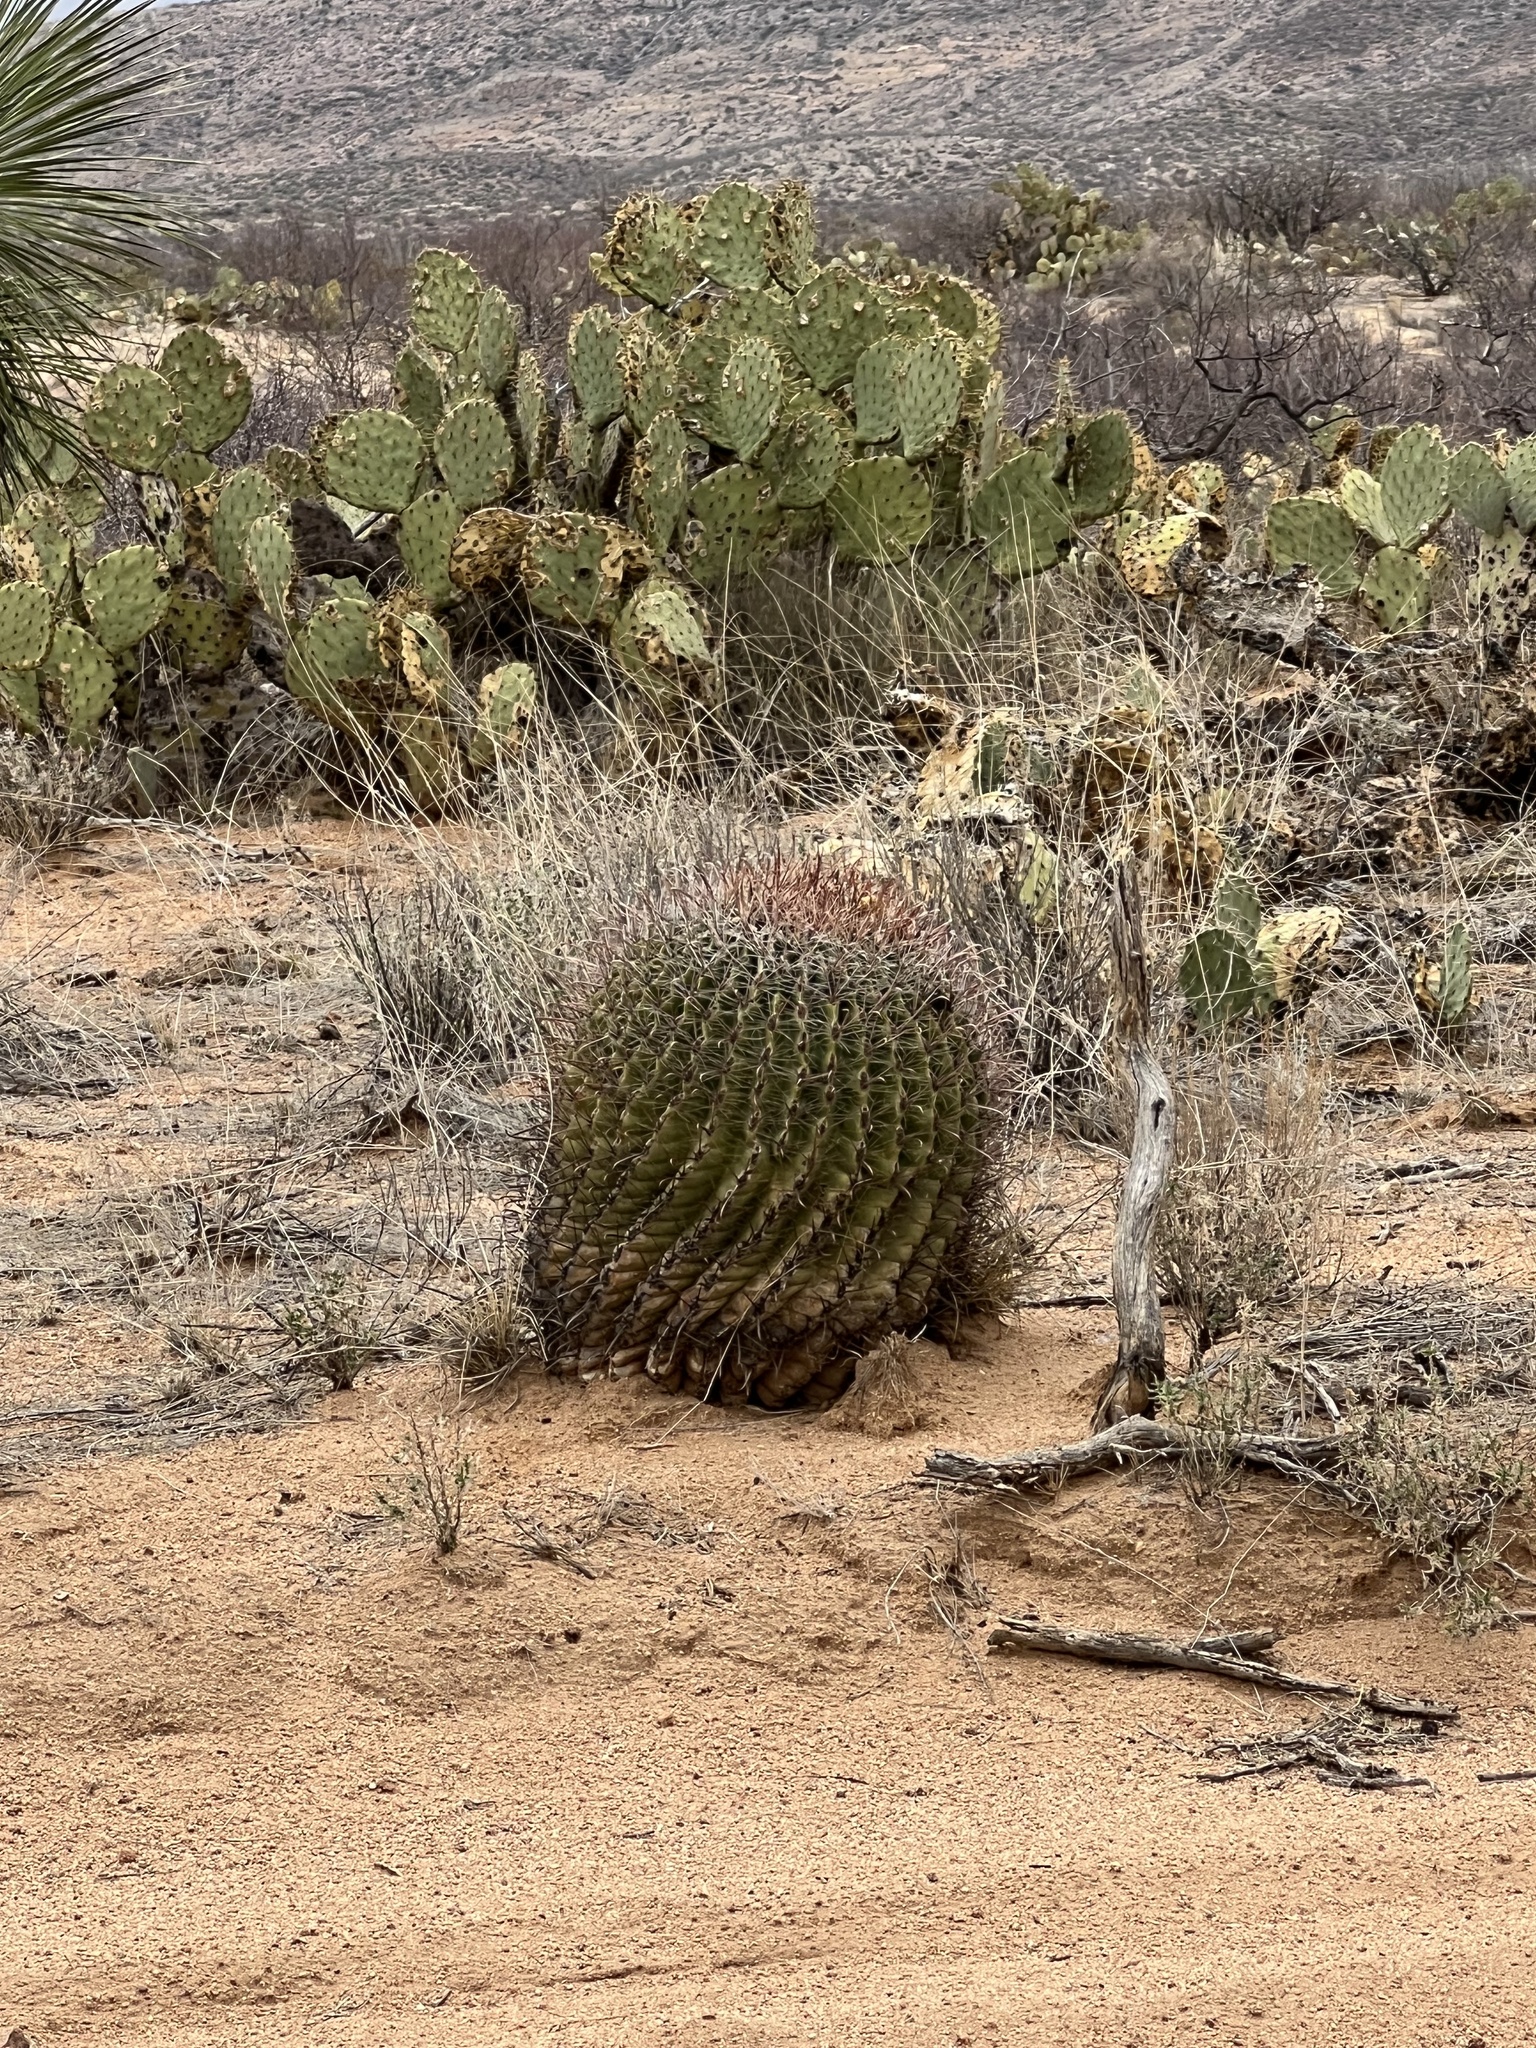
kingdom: Plantae
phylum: Tracheophyta
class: Magnoliopsida
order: Caryophyllales
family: Cactaceae
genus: Ferocactus
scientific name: Ferocactus wislizeni
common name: Candy barrel cactus
